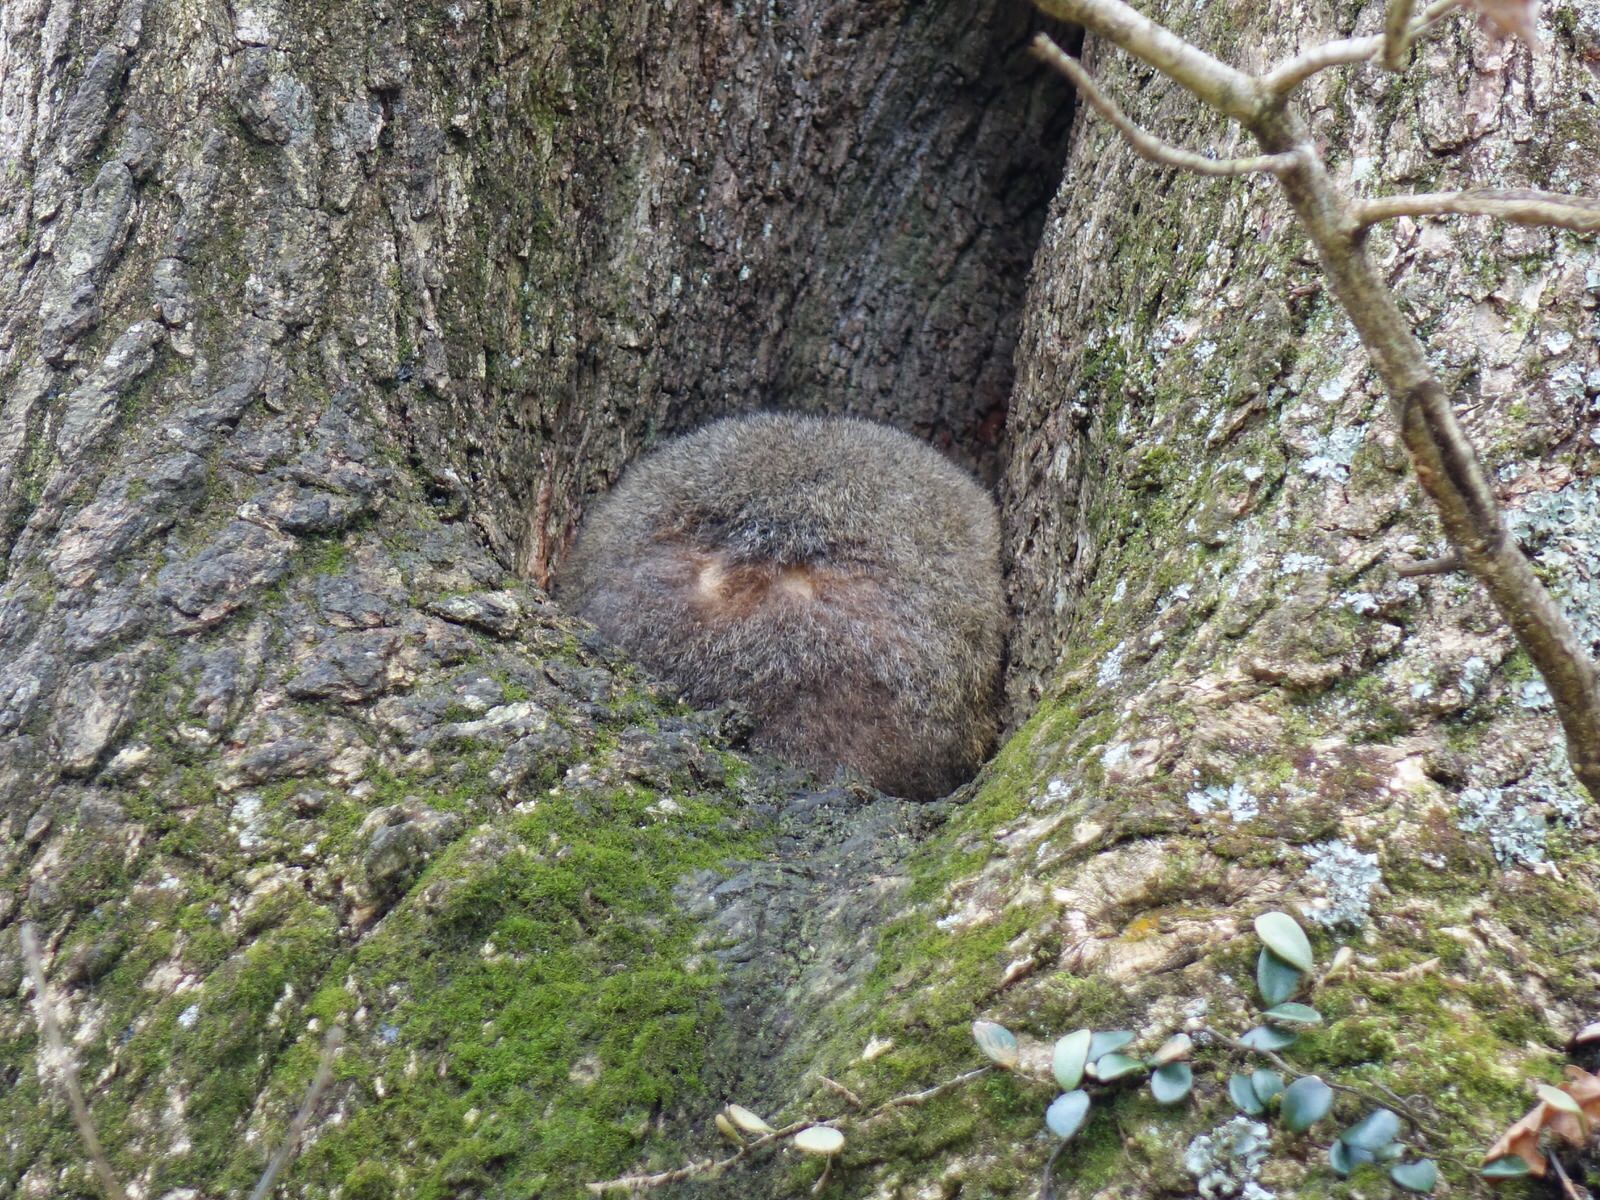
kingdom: Animalia
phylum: Chordata
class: Mammalia
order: Diprotodontia
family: Phalangeridae
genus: Trichosurus
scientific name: Trichosurus vulpecula
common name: Common brushtail
